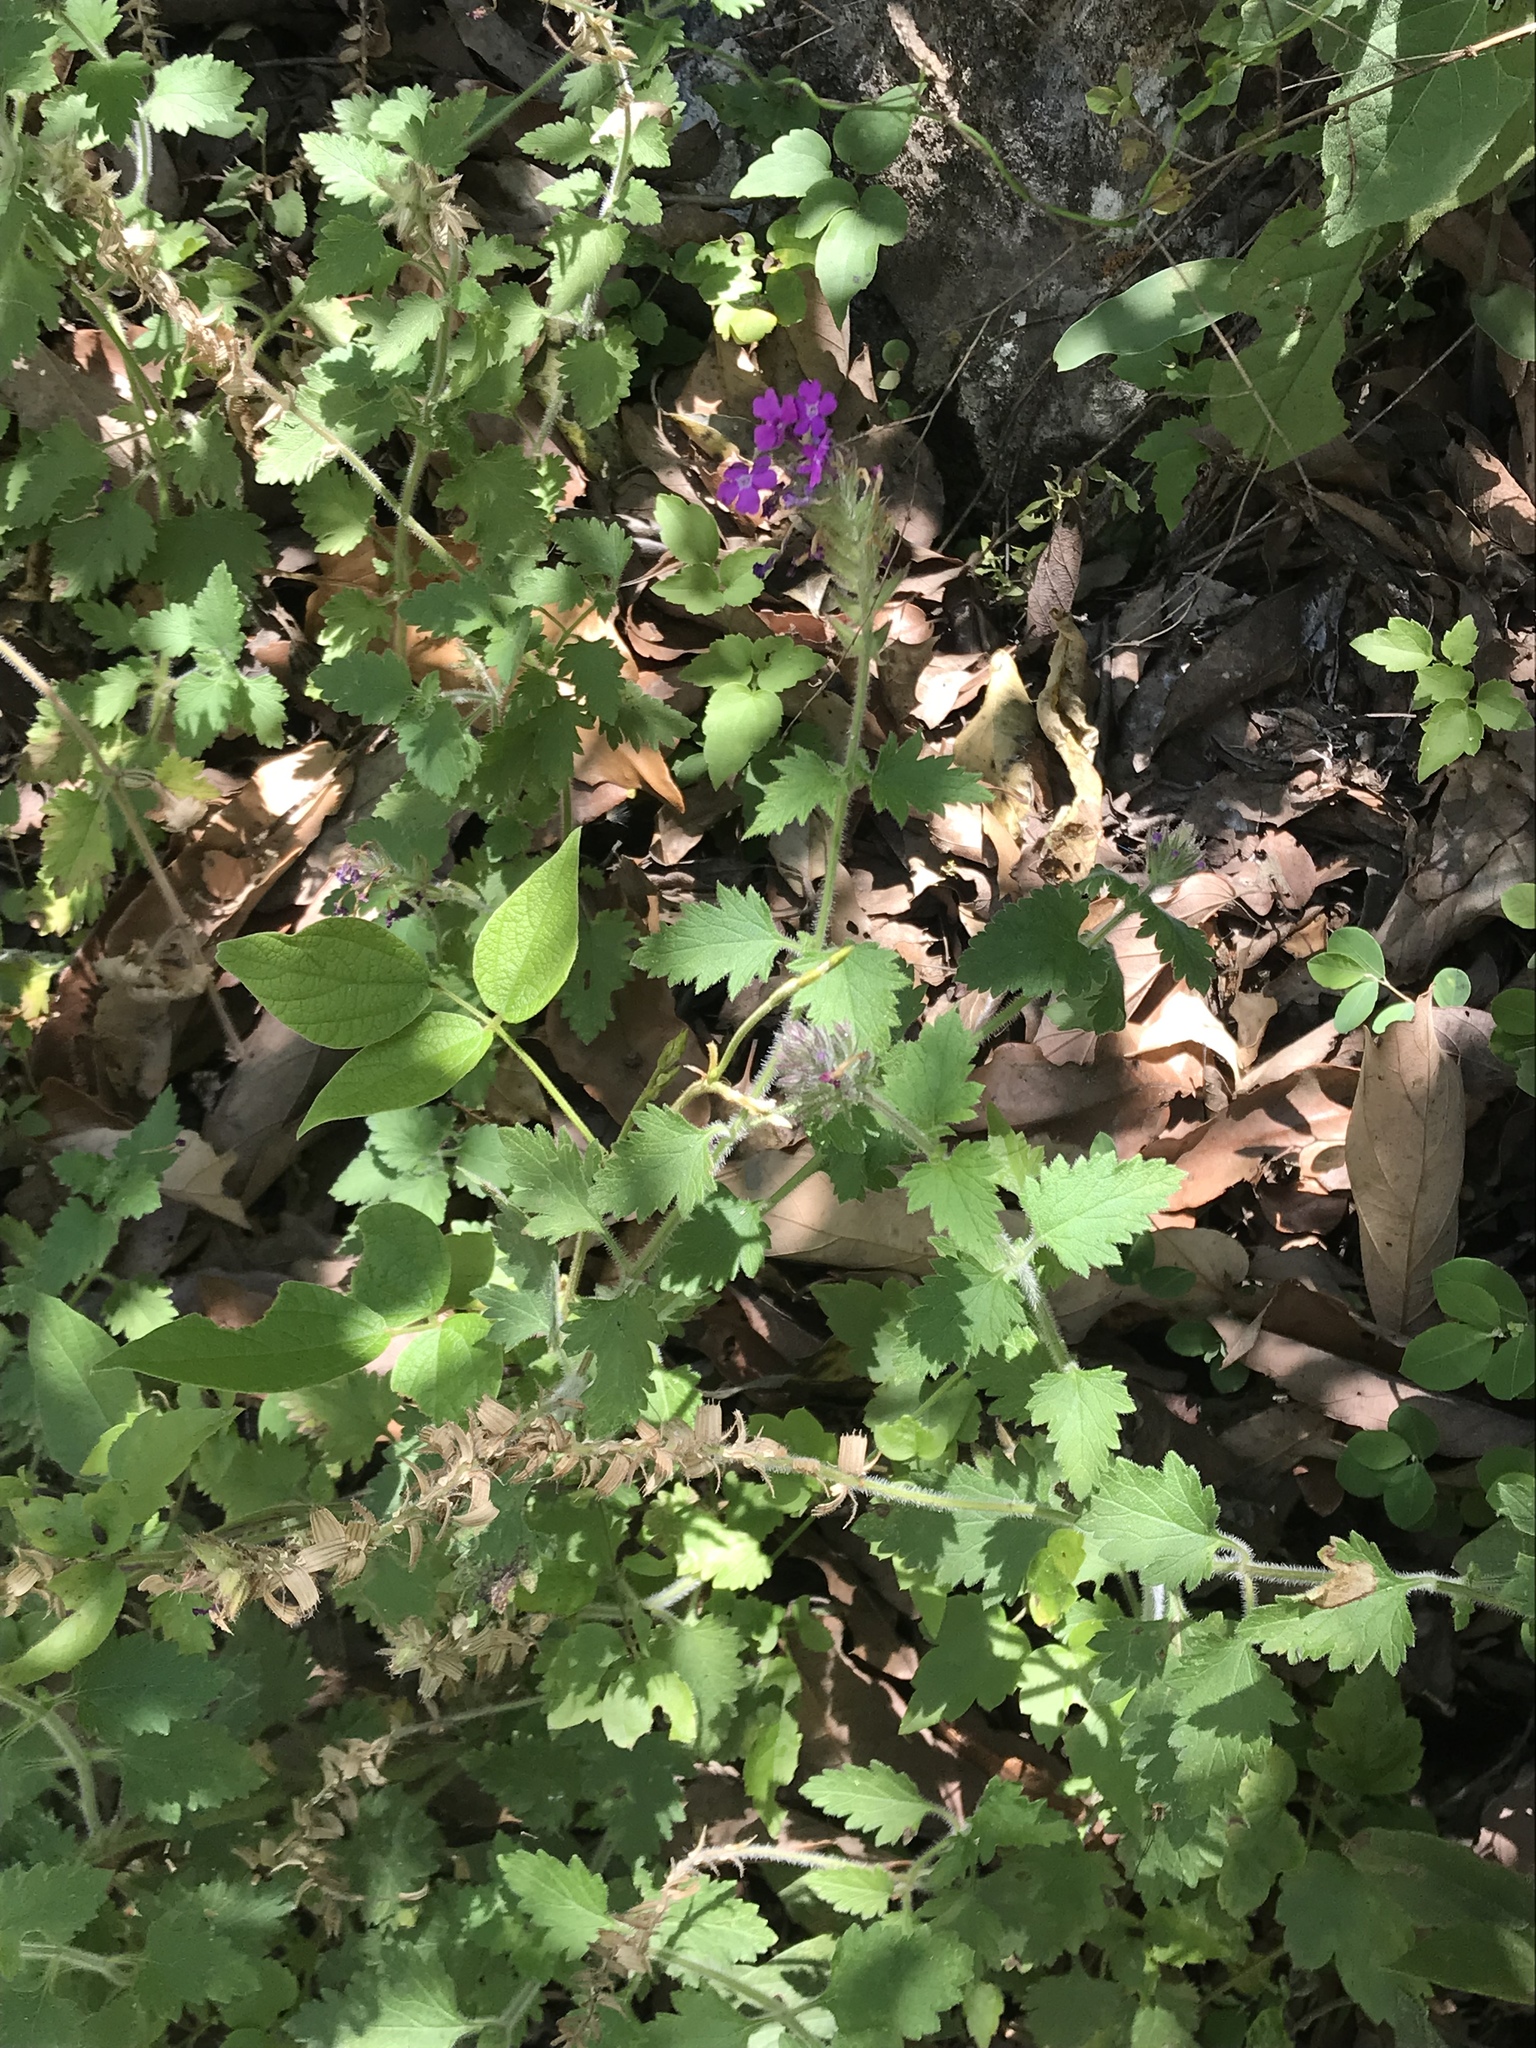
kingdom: Plantae
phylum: Tracheophyta
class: Magnoliopsida
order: Lamiales
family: Verbenaceae
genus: Verbena
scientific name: Verbena canadensis
